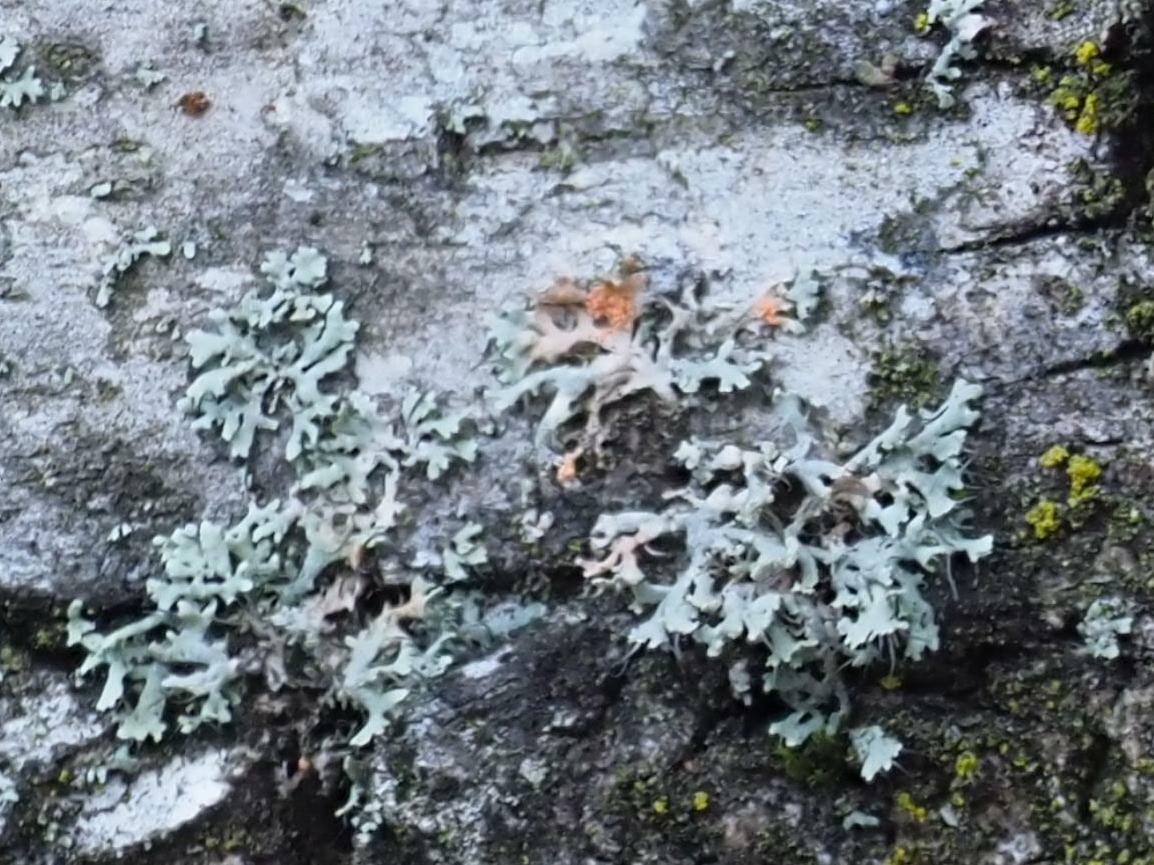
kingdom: Fungi
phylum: Basidiomycota
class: Agaricomycetes
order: Corticiales
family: Corticiaceae
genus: Erythricium
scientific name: Erythricium aurantiacum
